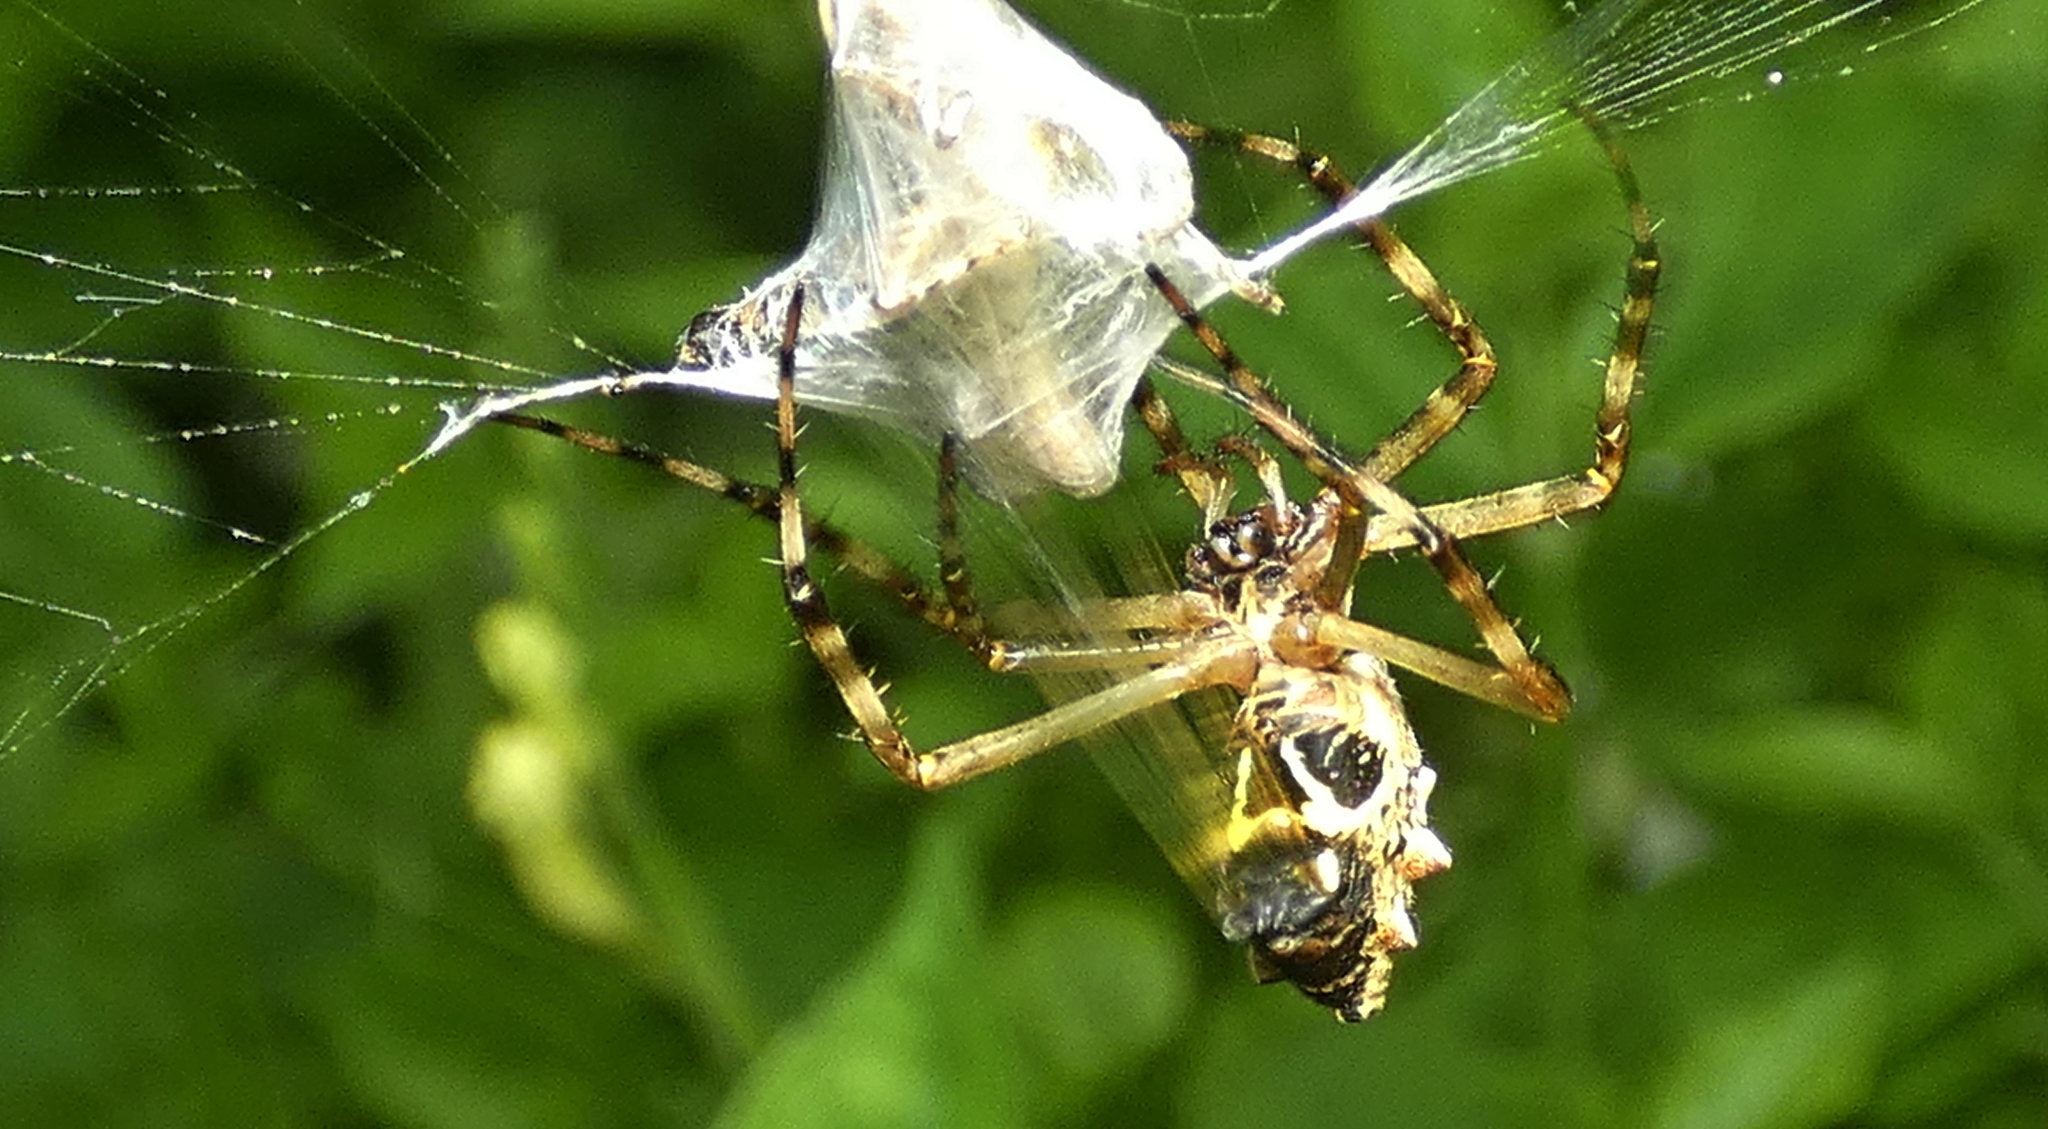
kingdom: Animalia
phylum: Arthropoda
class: Arachnida
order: Araneae
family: Araneidae
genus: Argiope
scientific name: Argiope argentata
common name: Orb weavers
